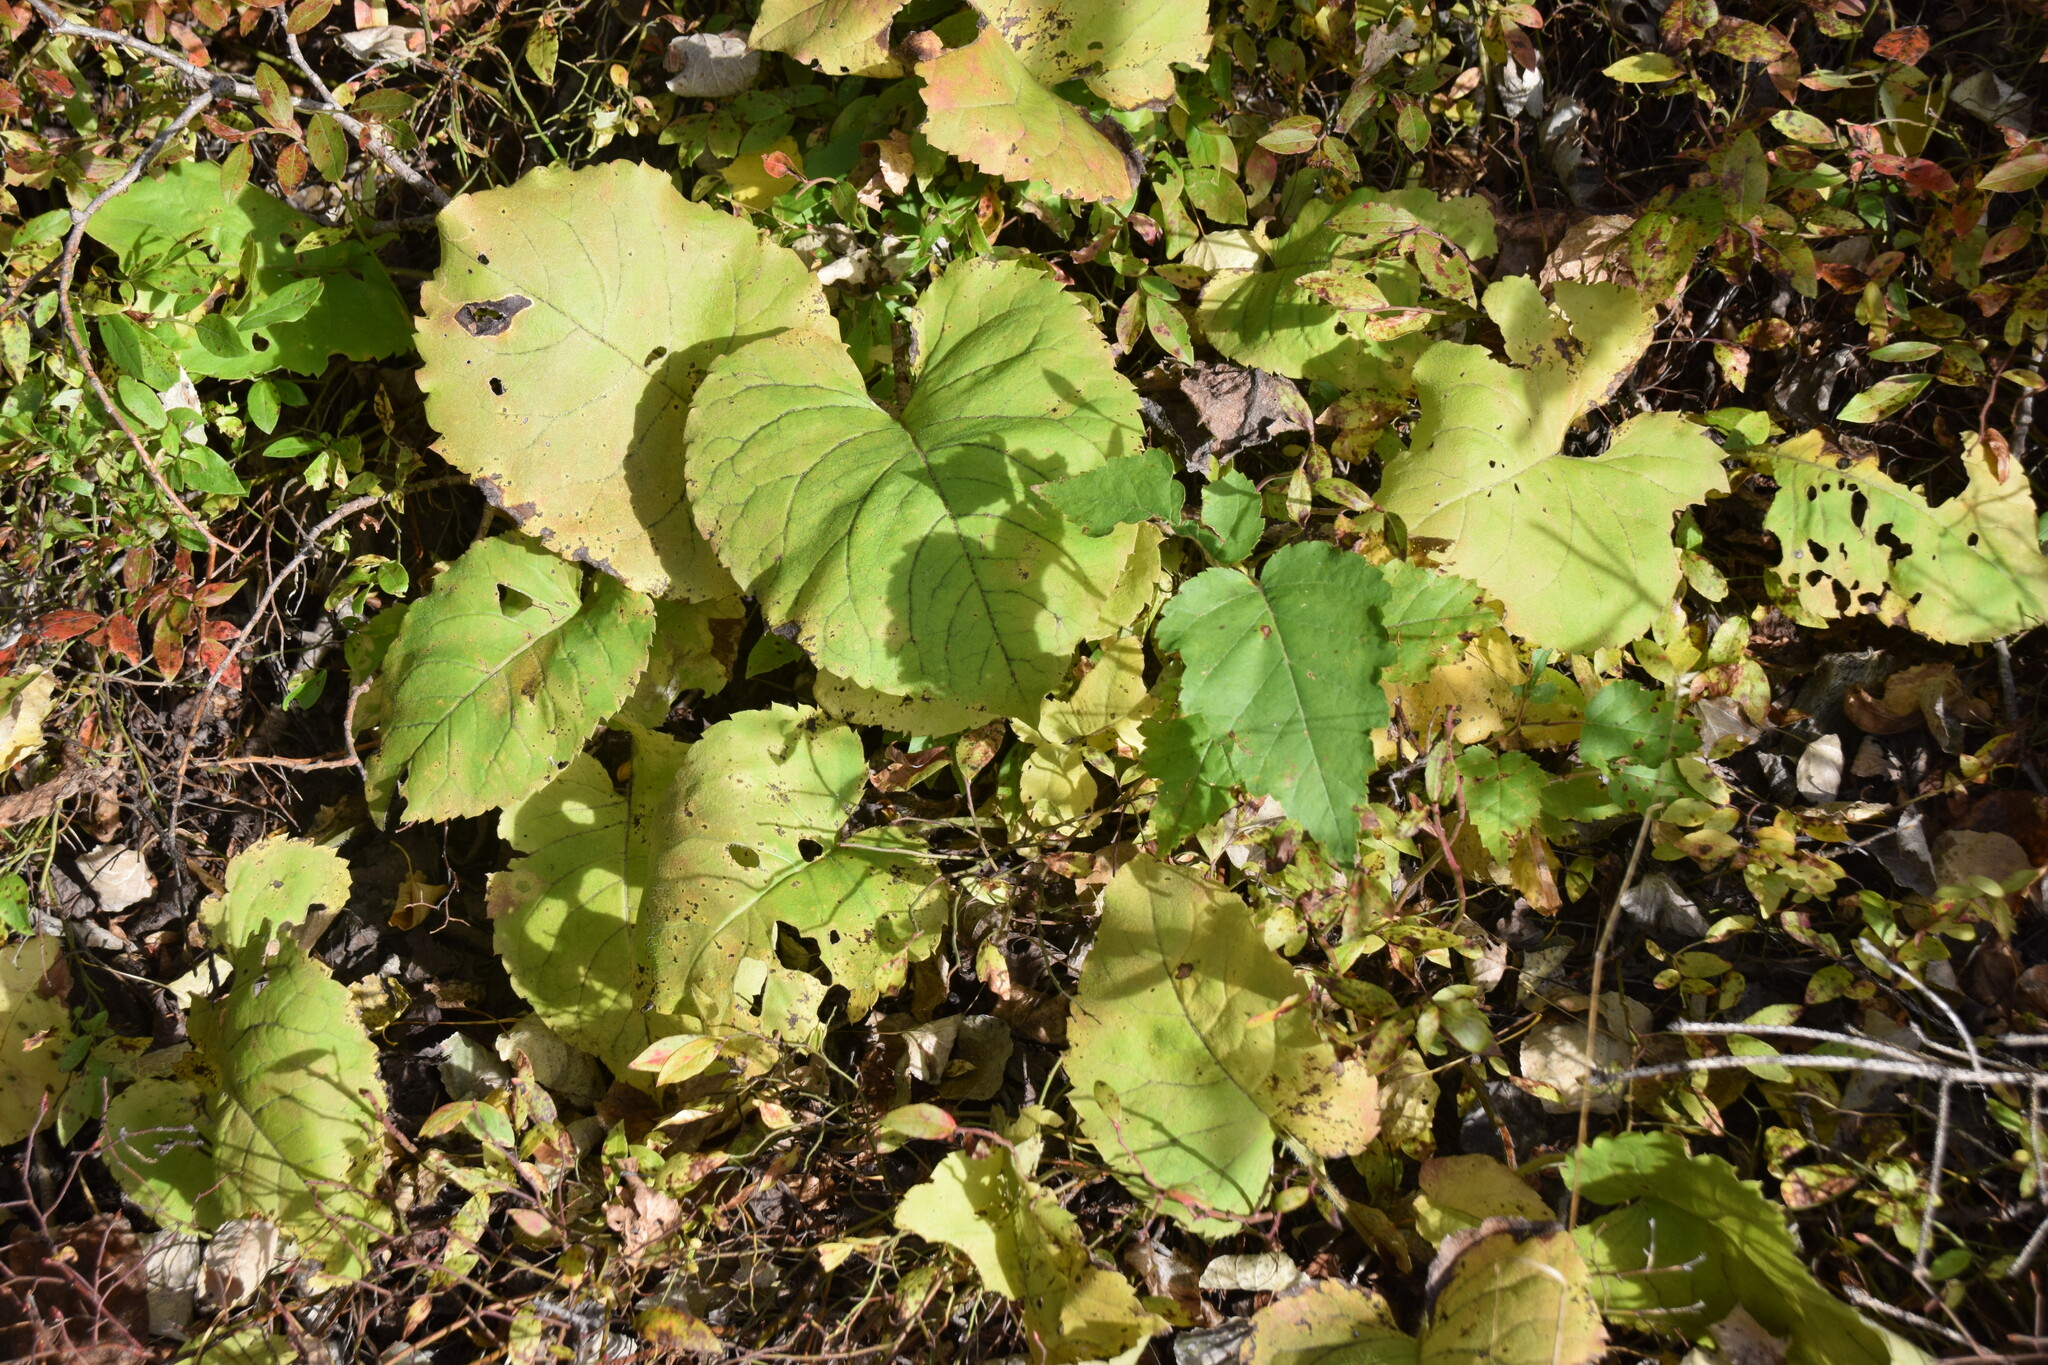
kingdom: Plantae
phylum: Tracheophyta
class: Magnoliopsida
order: Asterales
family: Asteraceae
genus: Eurybia
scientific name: Eurybia macrophylla
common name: Big-leaved aster
